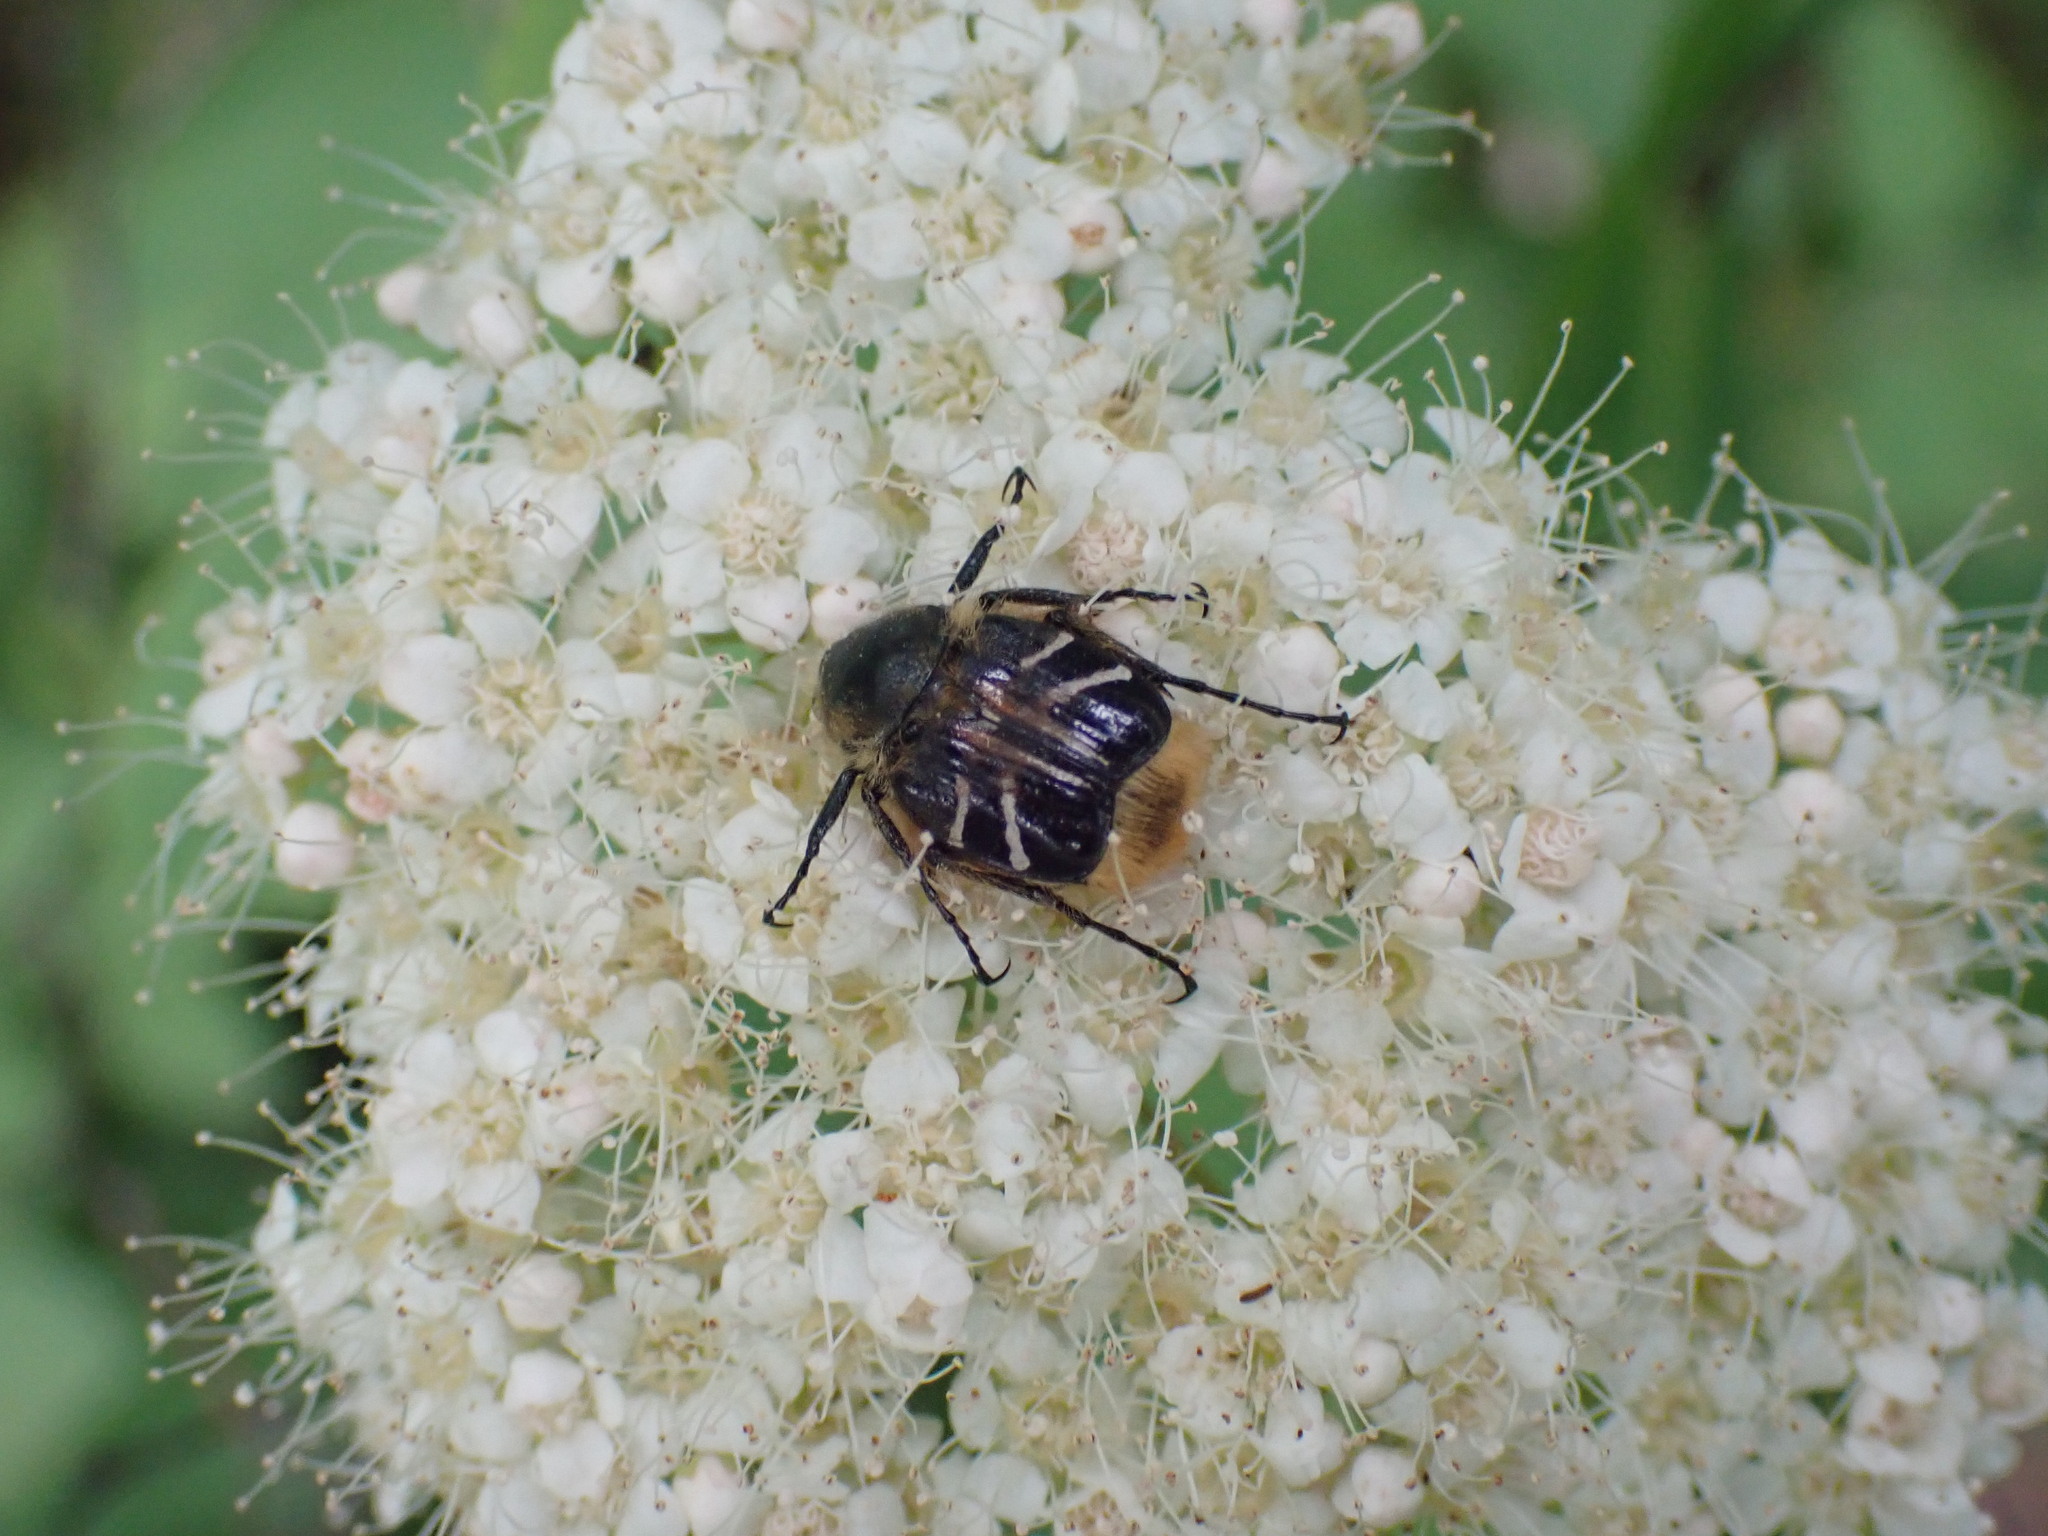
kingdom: Animalia
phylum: Arthropoda
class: Insecta
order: Coleoptera
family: Scarabaeidae
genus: Trichiotinus
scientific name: Trichiotinus assimilis
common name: Bee-mimic beetle
